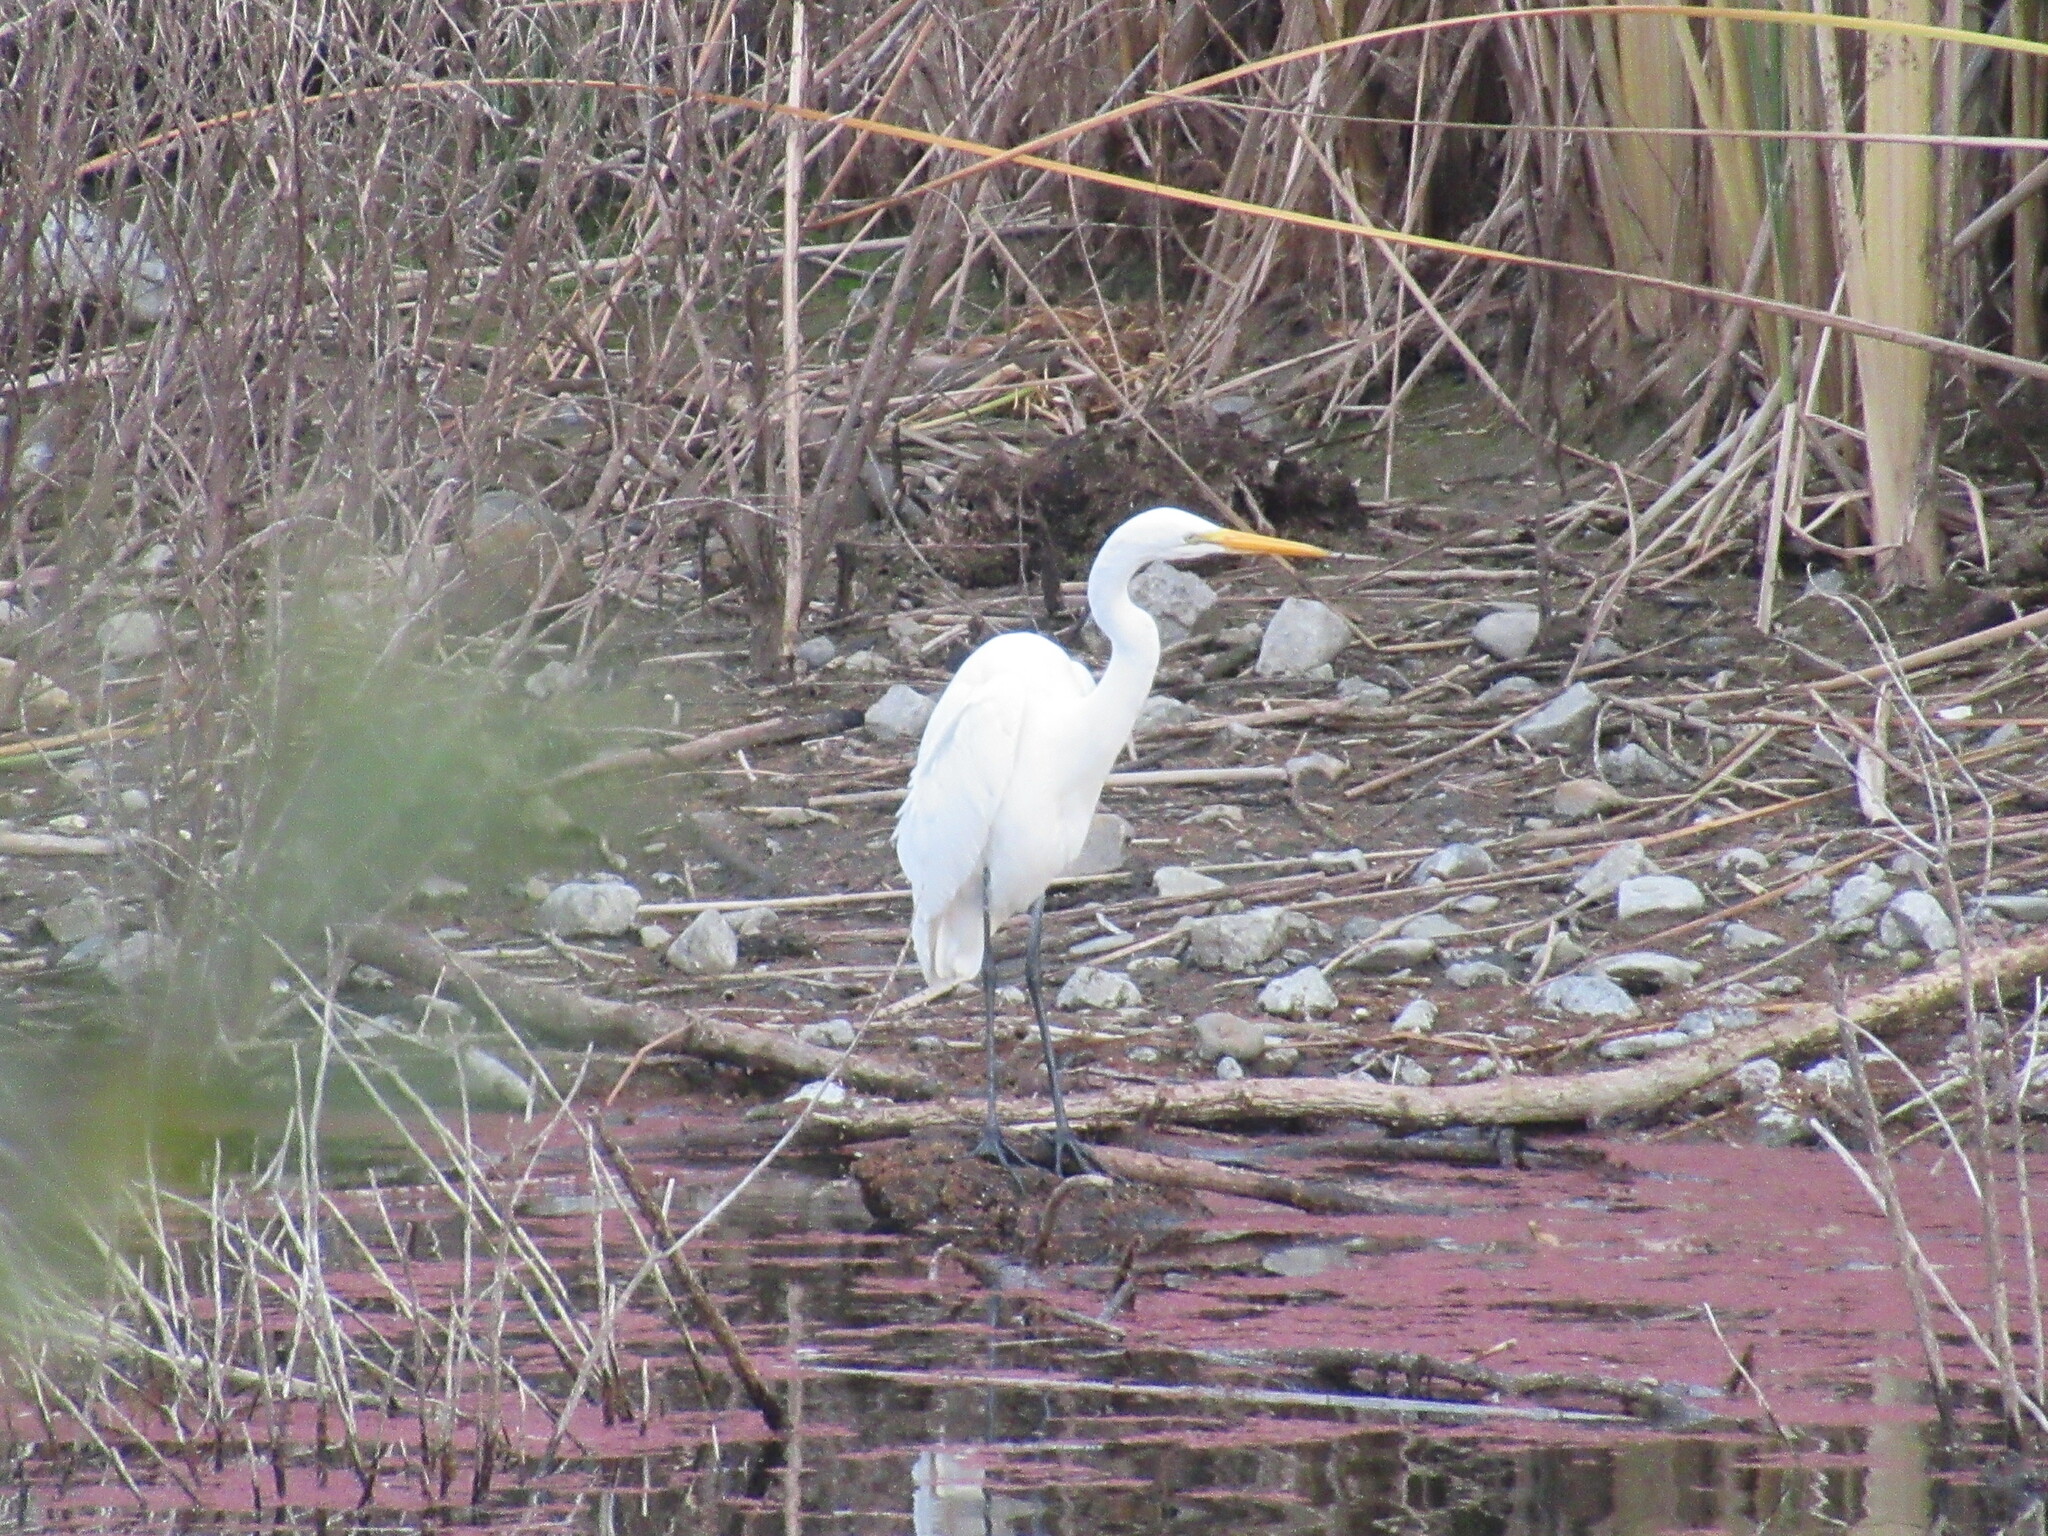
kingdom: Animalia
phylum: Chordata
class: Aves
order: Pelecaniformes
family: Ardeidae
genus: Ardea
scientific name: Ardea alba
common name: Great egret
